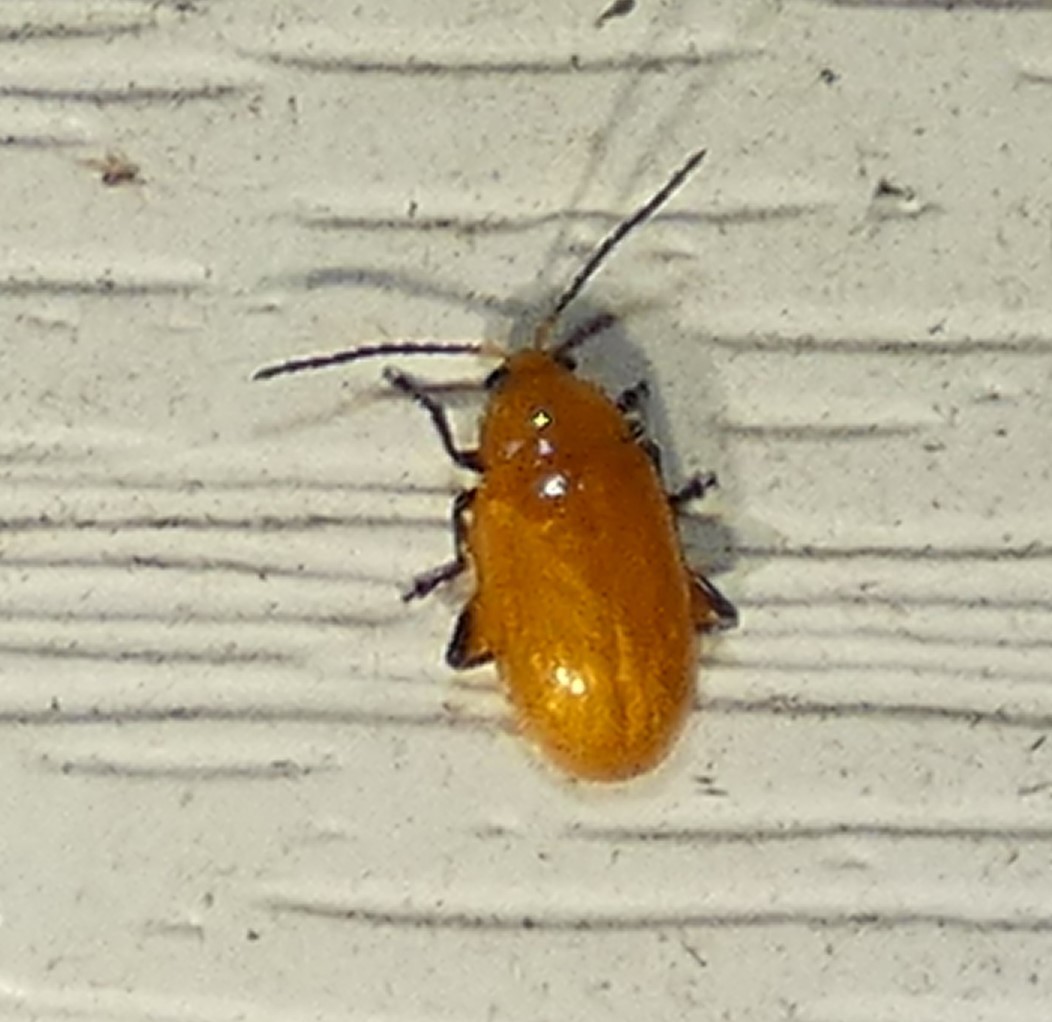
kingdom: Animalia
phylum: Arthropoda
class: Insecta
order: Coleoptera
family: Chrysomelidae
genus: Parchicola
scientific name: Parchicola tibialis
